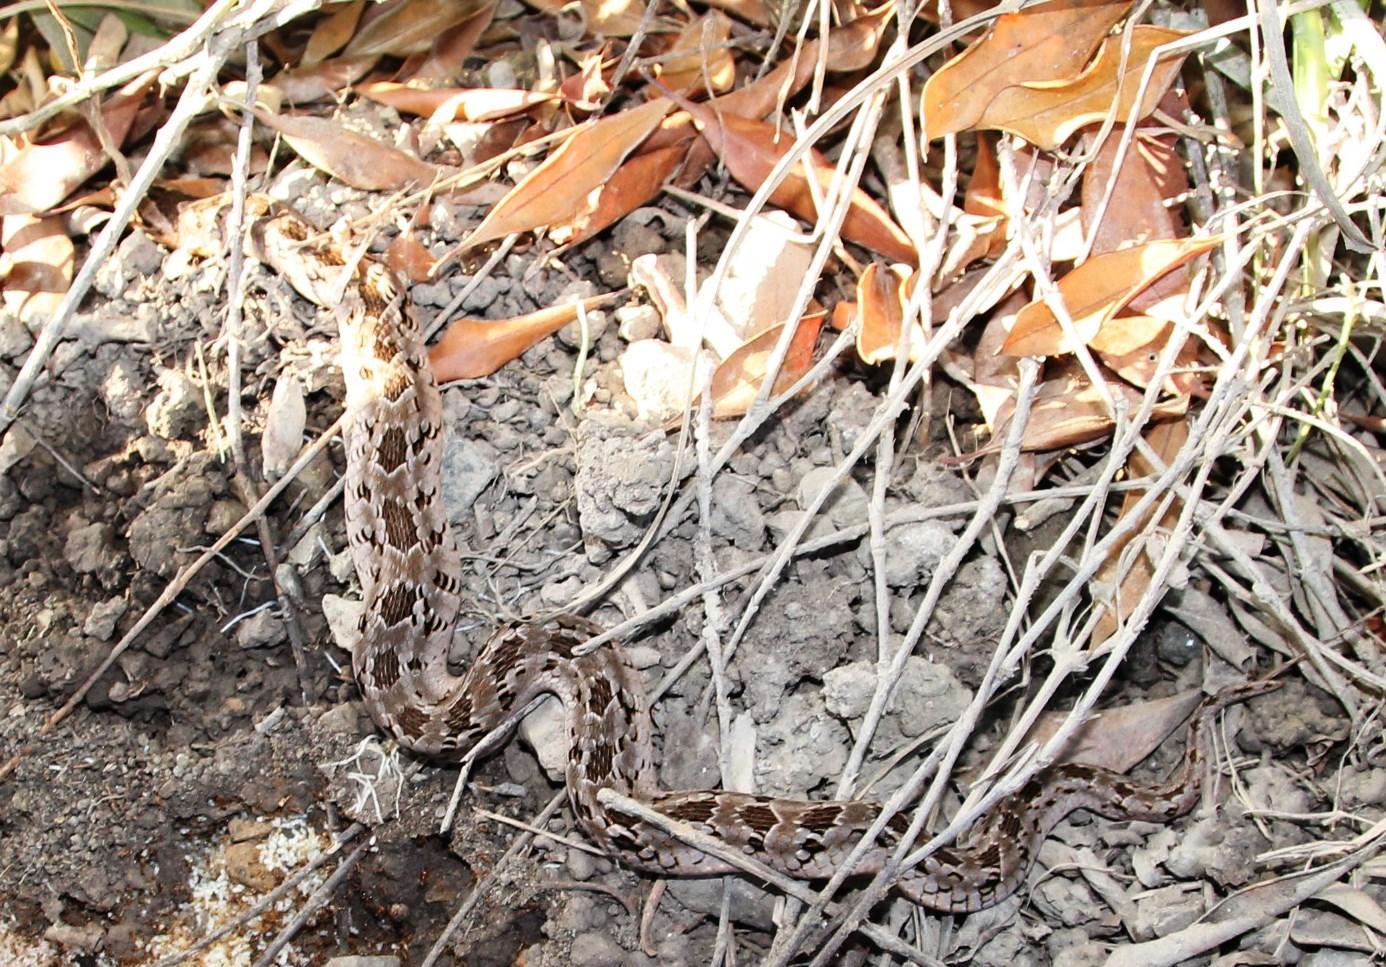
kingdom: Animalia
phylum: Chordata
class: Squamata
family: Viperidae
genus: Causus
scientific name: Causus rhombeatus
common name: Common night adder
